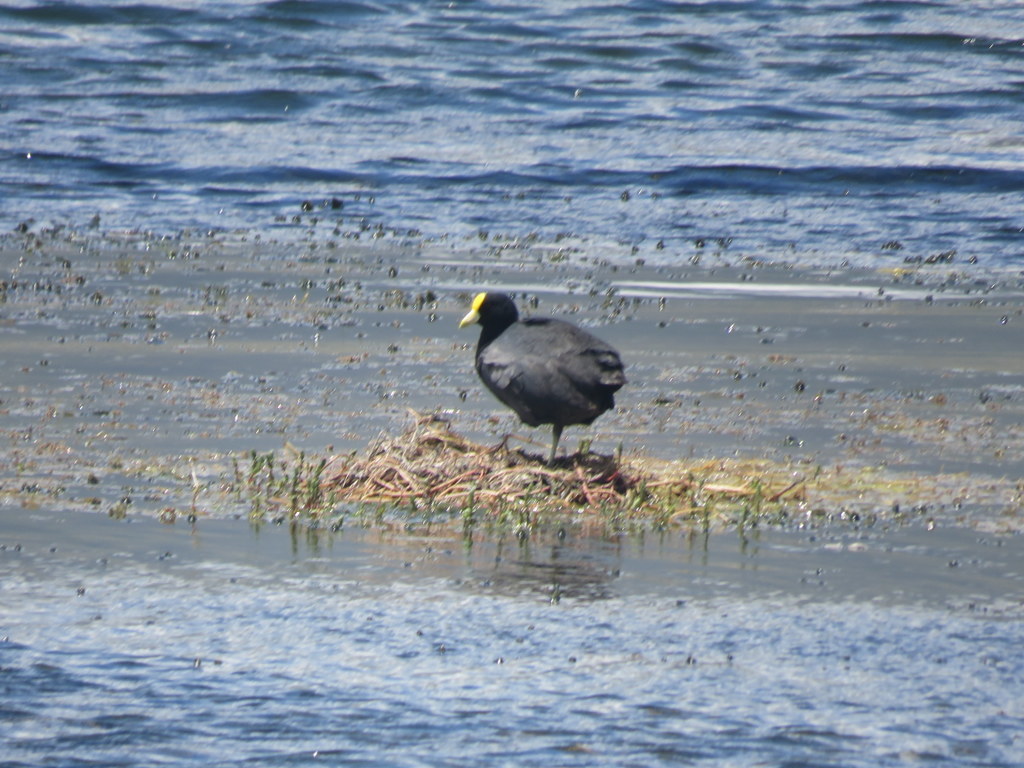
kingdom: Animalia
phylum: Chordata
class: Aves
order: Gruiformes
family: Rallidae
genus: Fulica
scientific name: Fulica leucoptera
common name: White-winged coot
